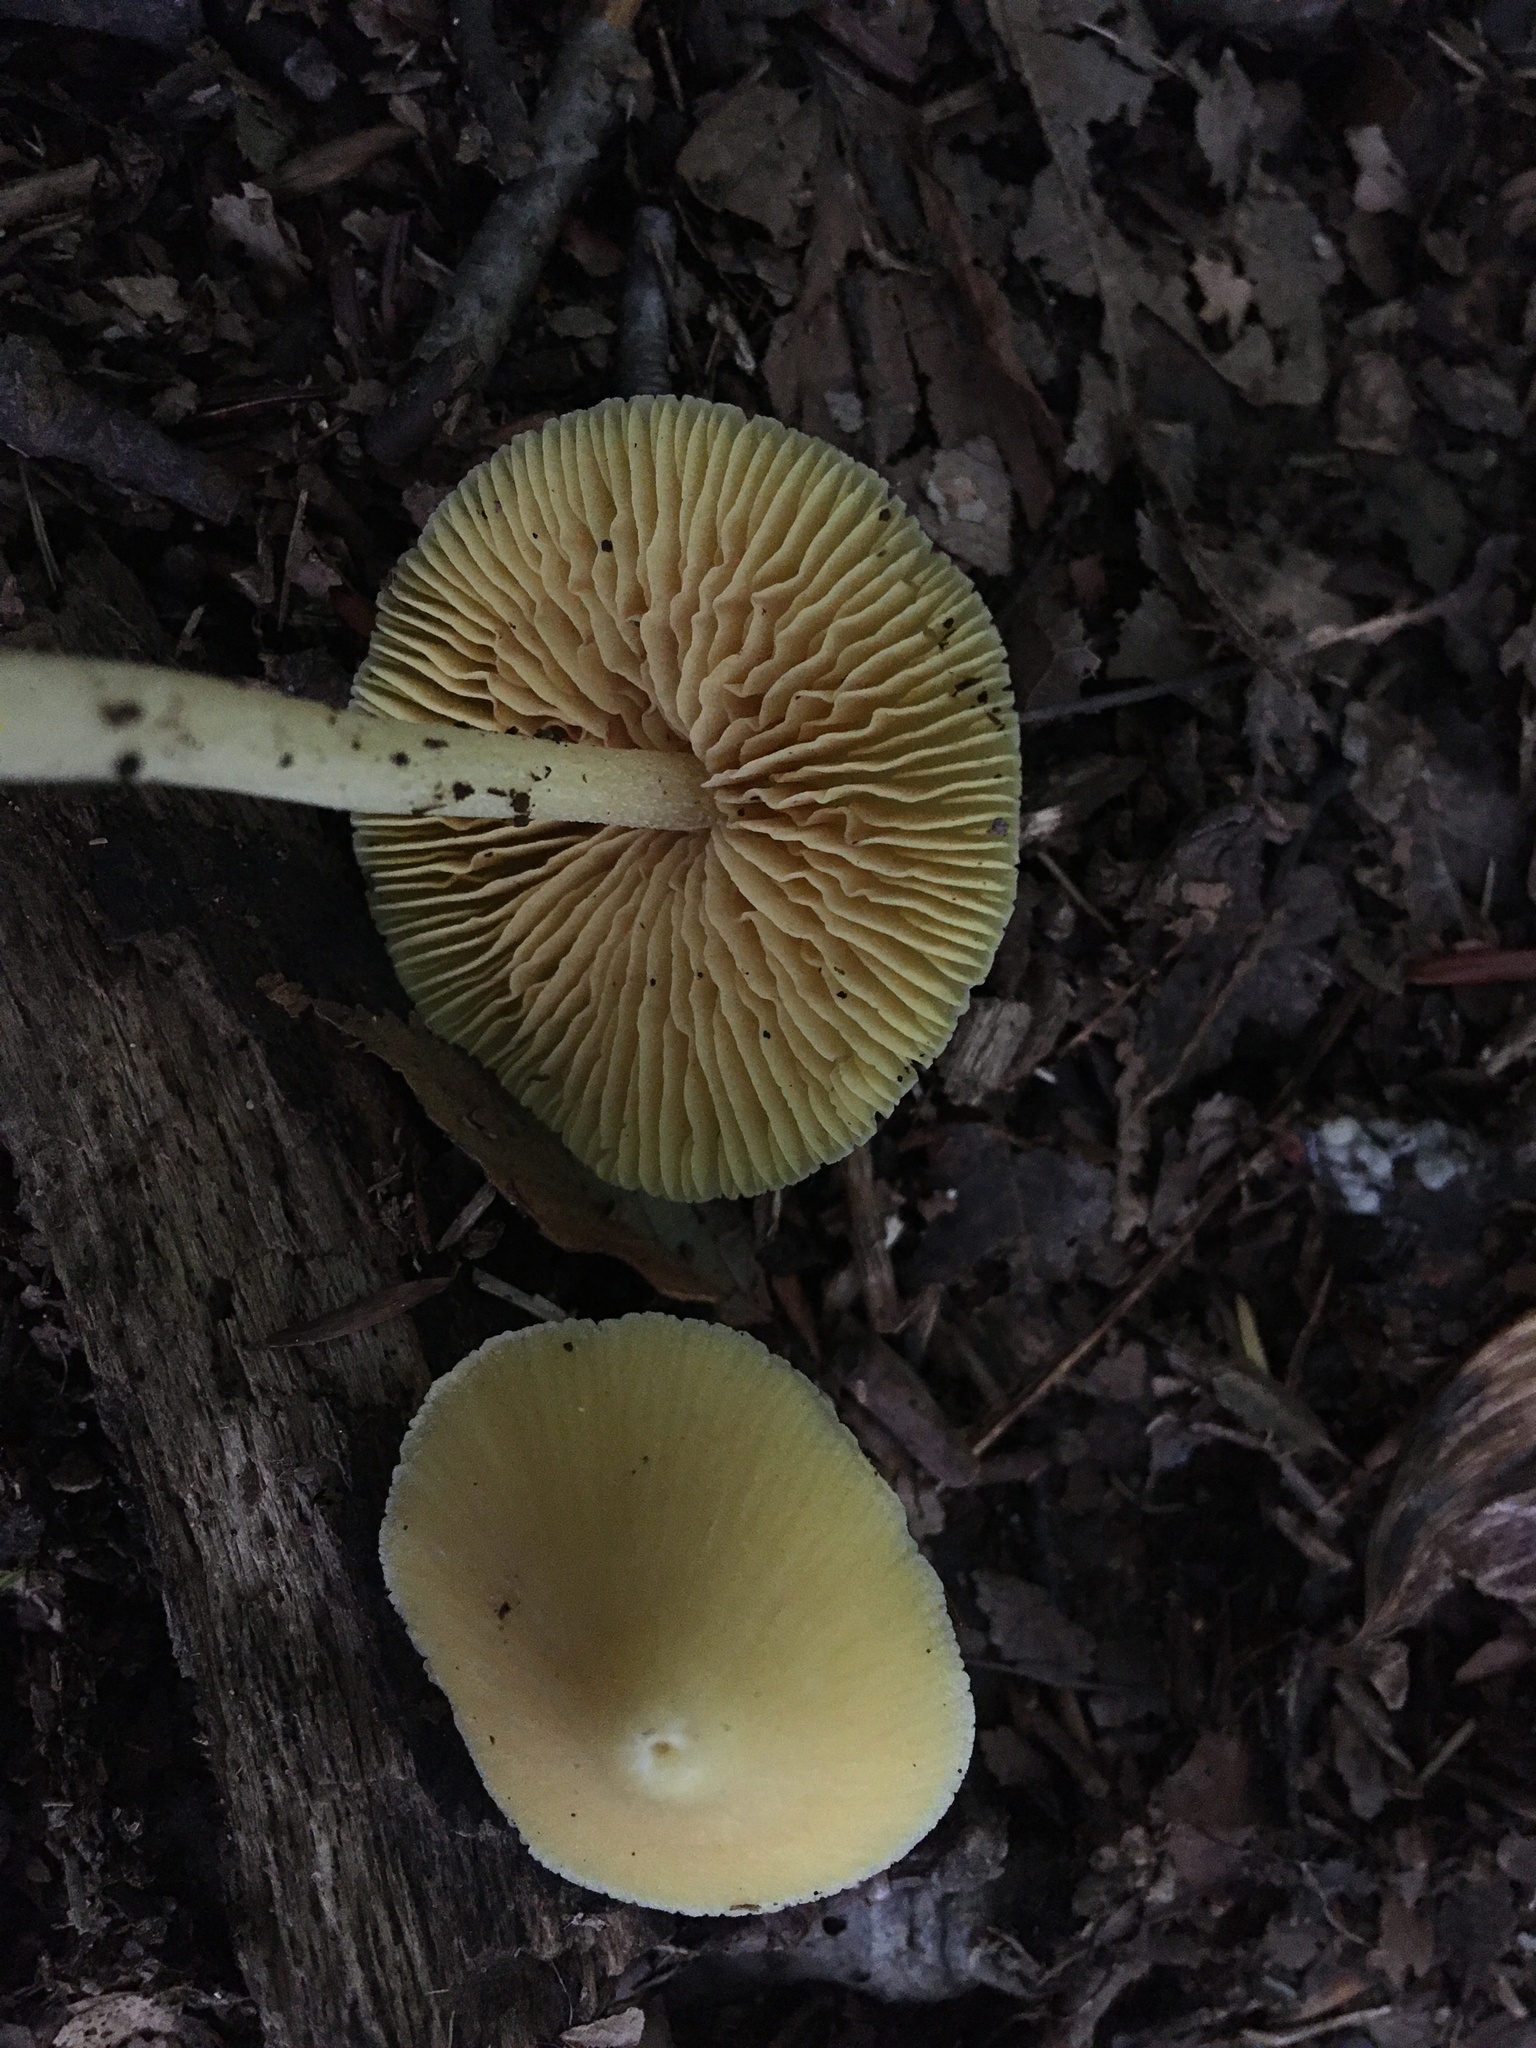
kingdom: Fungi
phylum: Basidiomycota
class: Agaricomycetes
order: Agaricales
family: Entolomataceae
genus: Entoloma
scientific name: Entoloma murrayi
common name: Yellow unicorn entoloma
